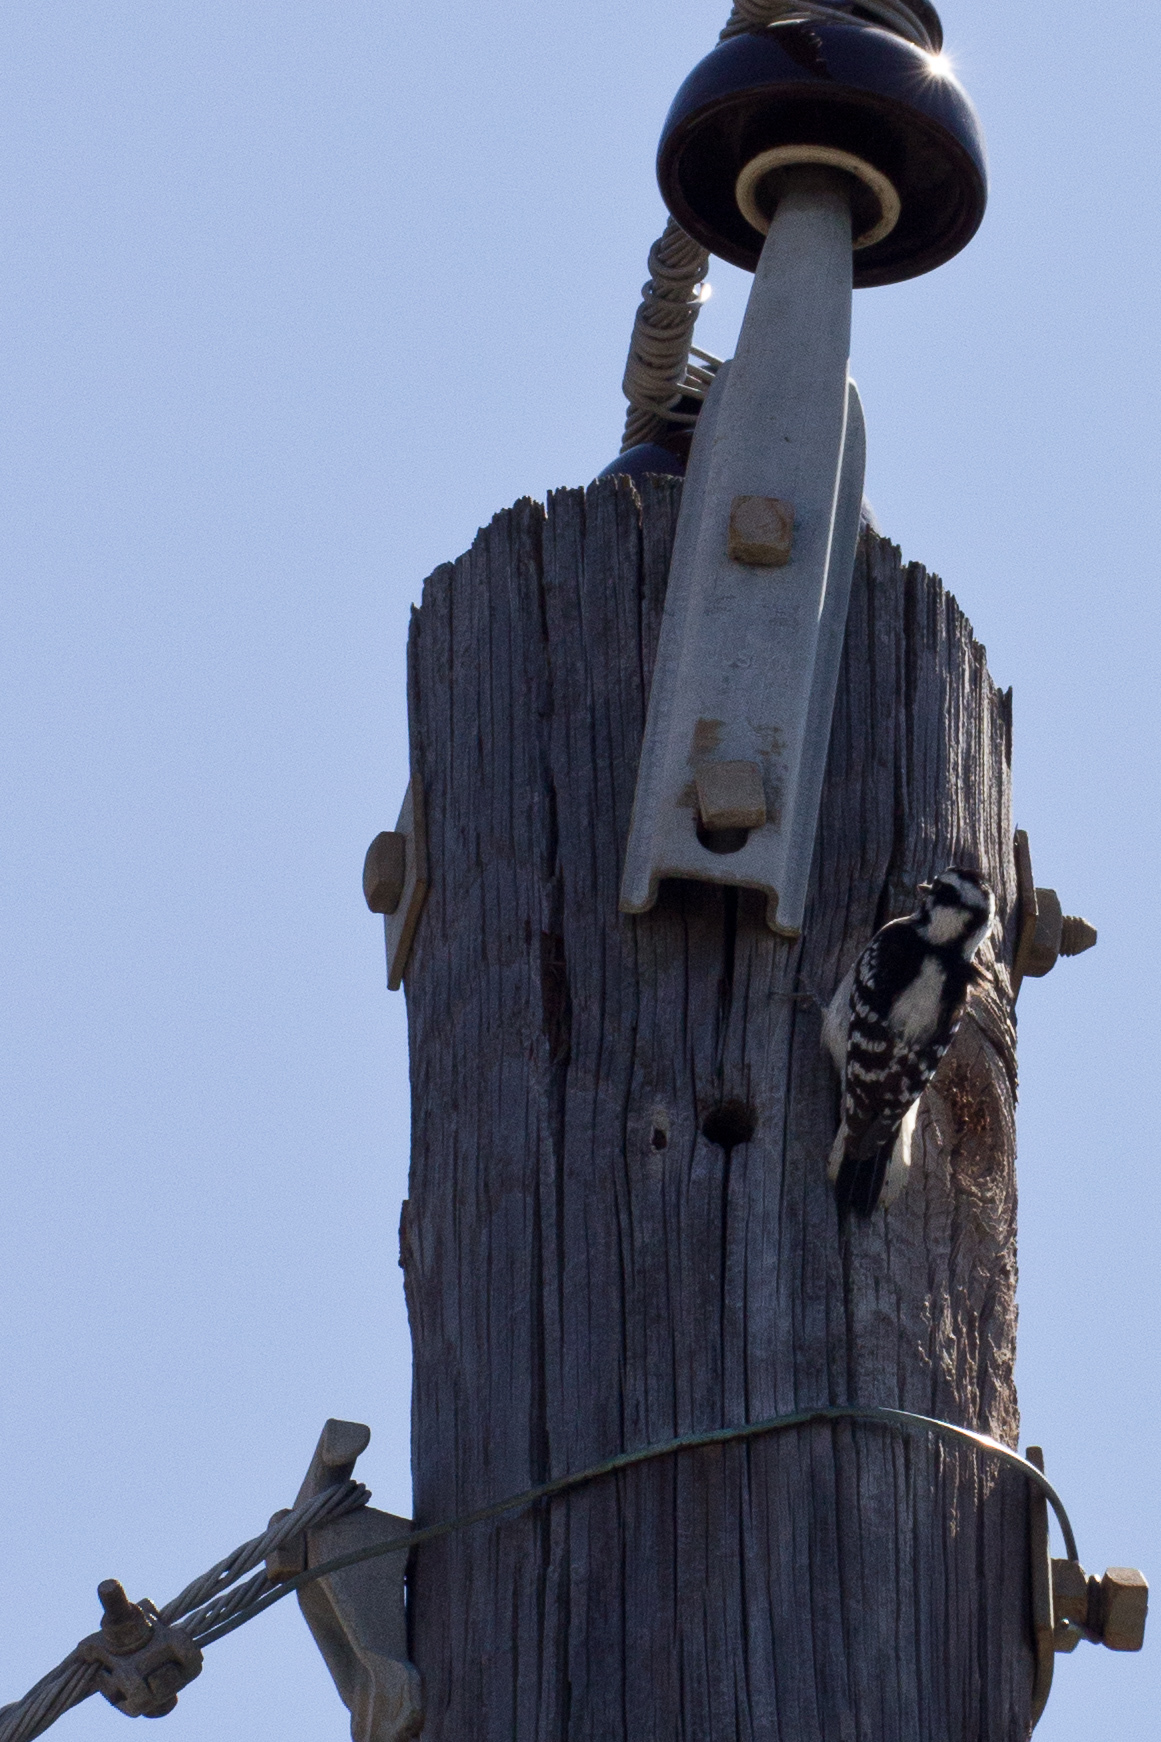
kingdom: Animalia
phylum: Chordata
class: Aves
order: Piciformes
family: Picidae
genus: Dryobates
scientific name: Dryobates pubescens
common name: Downy woodpecker
